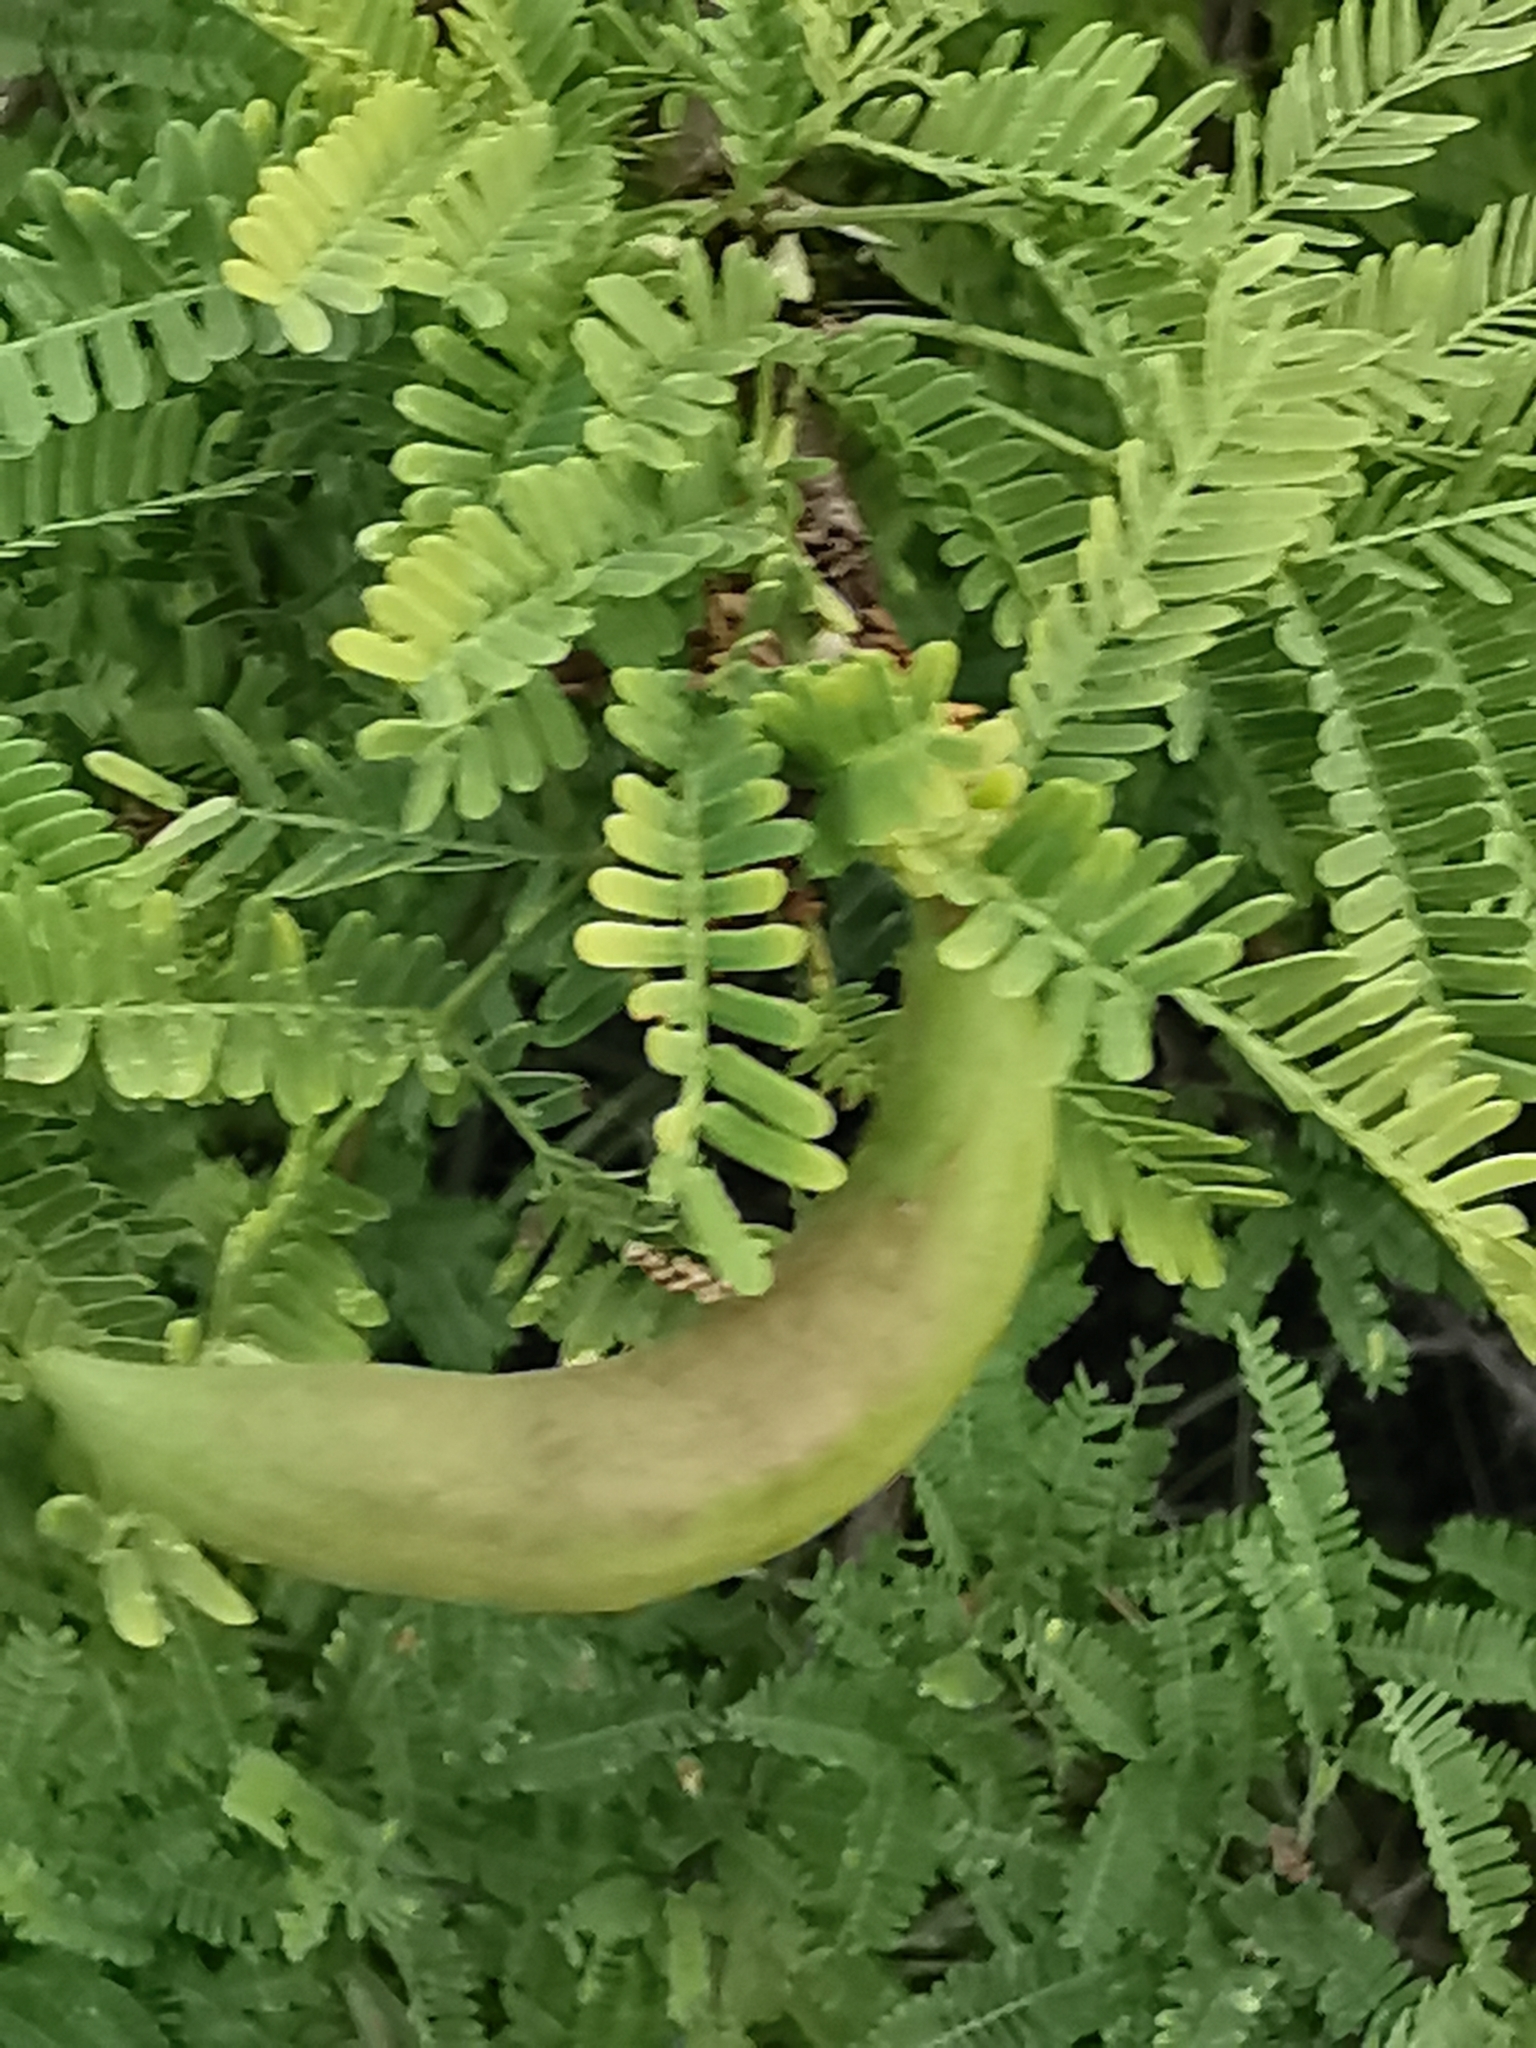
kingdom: Plantae
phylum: Tracheophyta
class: Magnoliopsida
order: Fabales
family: Fabaceae
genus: Vachellia
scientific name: Vachellia farnesiana
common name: Sweet acacia
